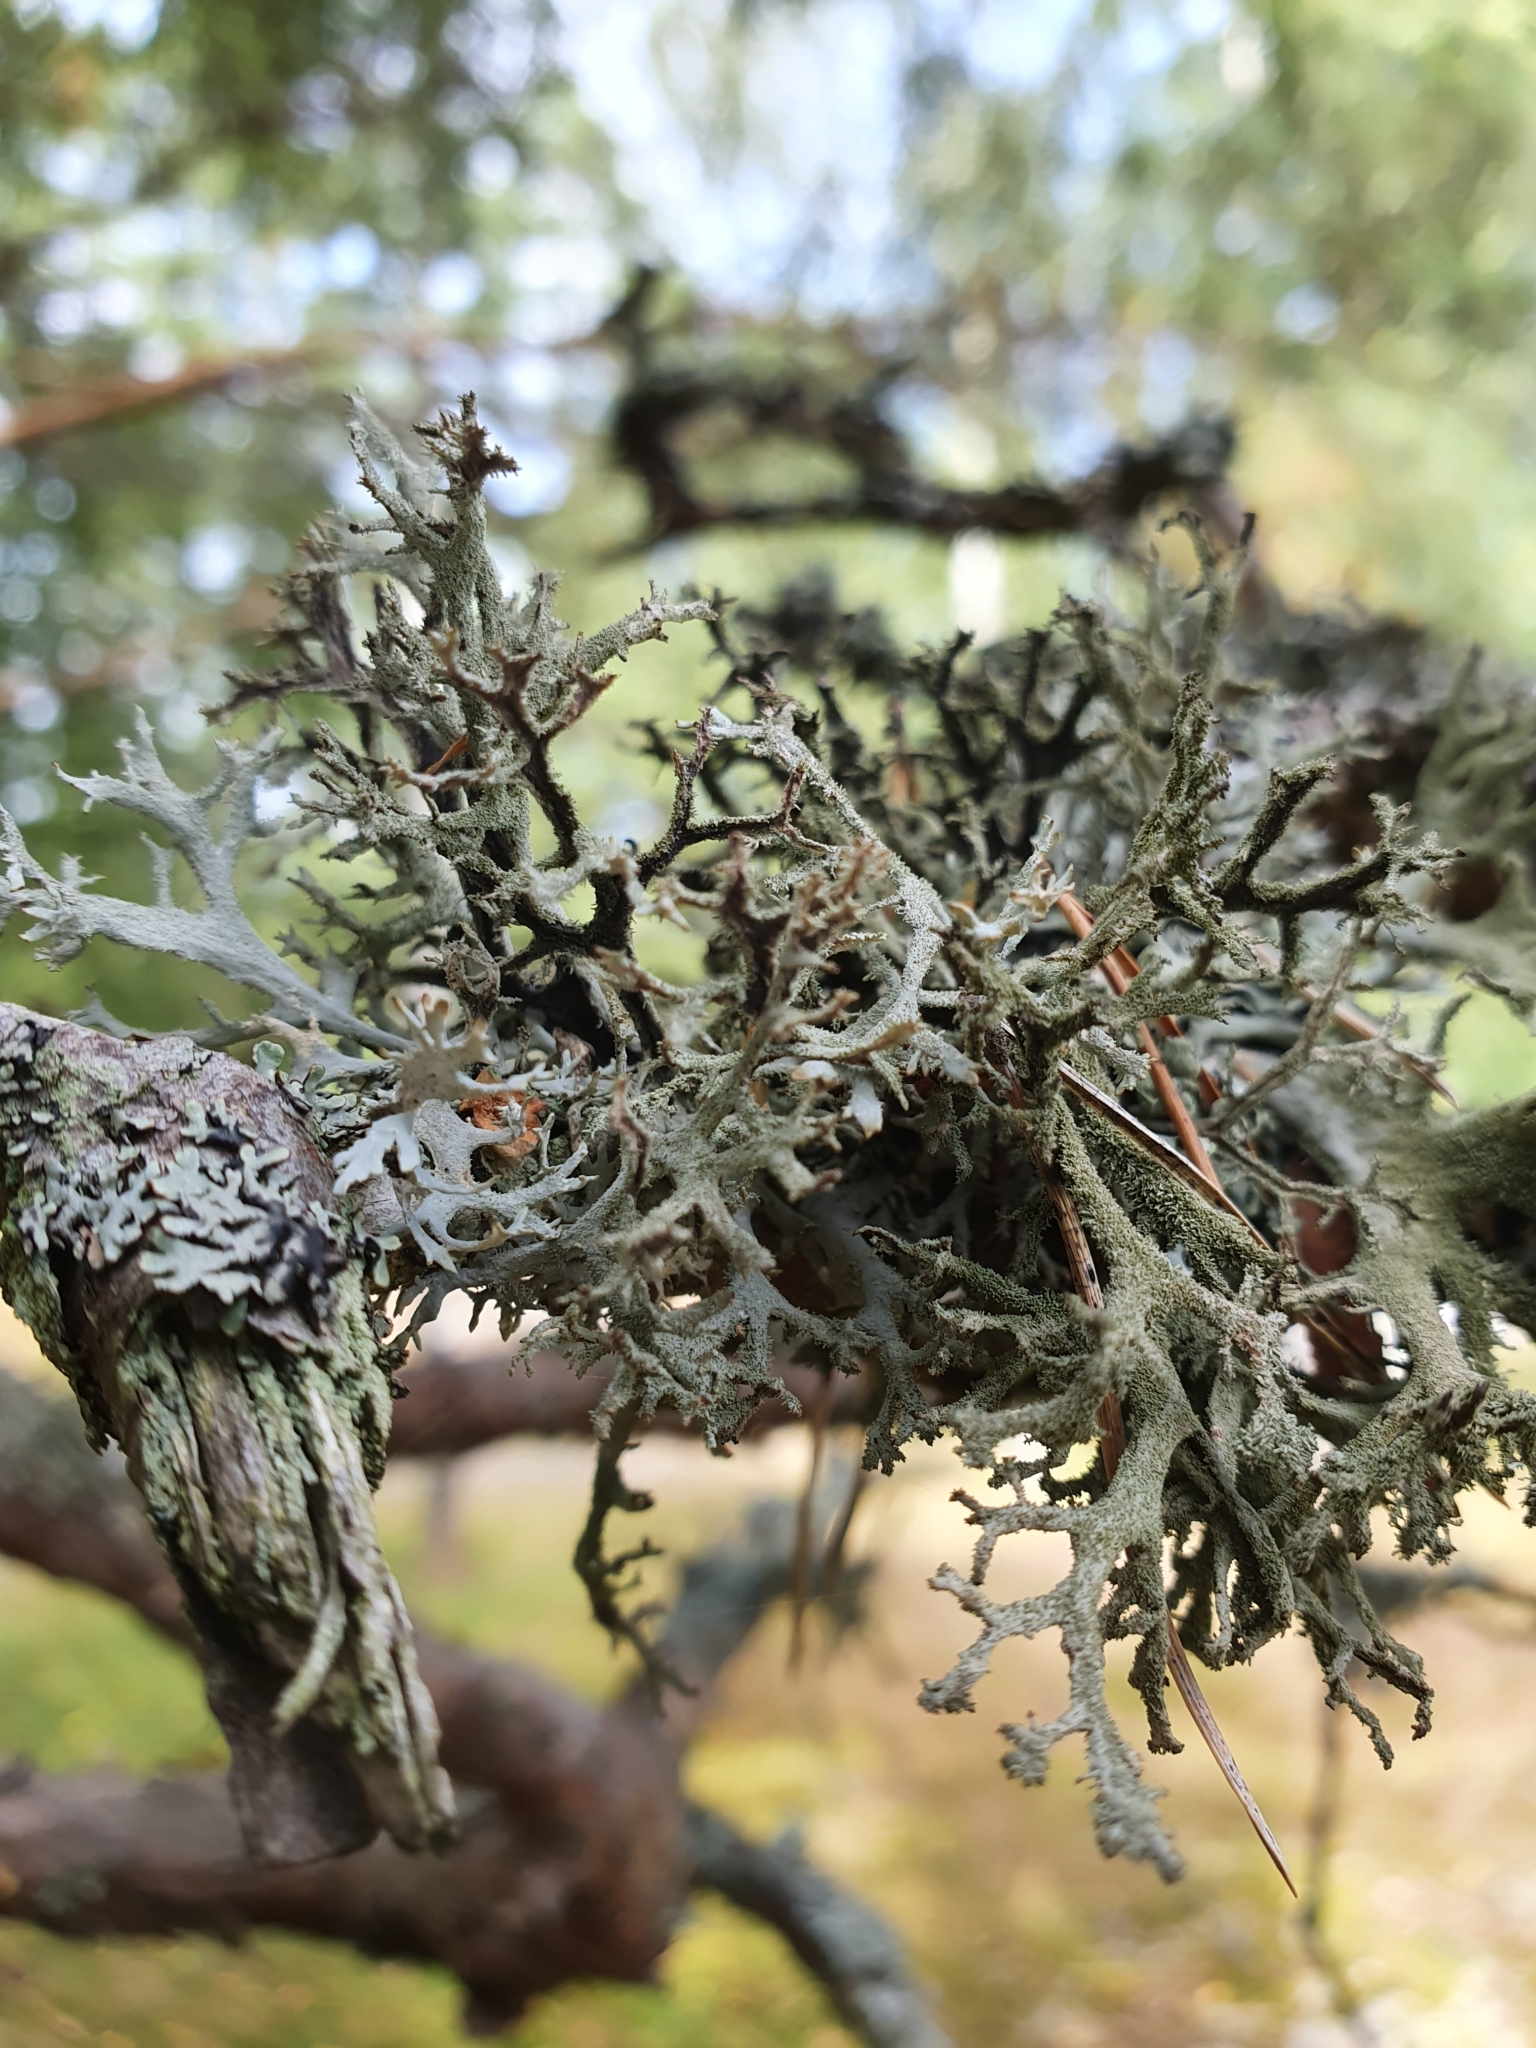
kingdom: Fungi
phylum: Ascomycota
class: Lecanoromycetes
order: Lecanorales
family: Parmeliaceae
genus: Pseudevernia
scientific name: Pseudevernia furfuracea
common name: Tree moss
